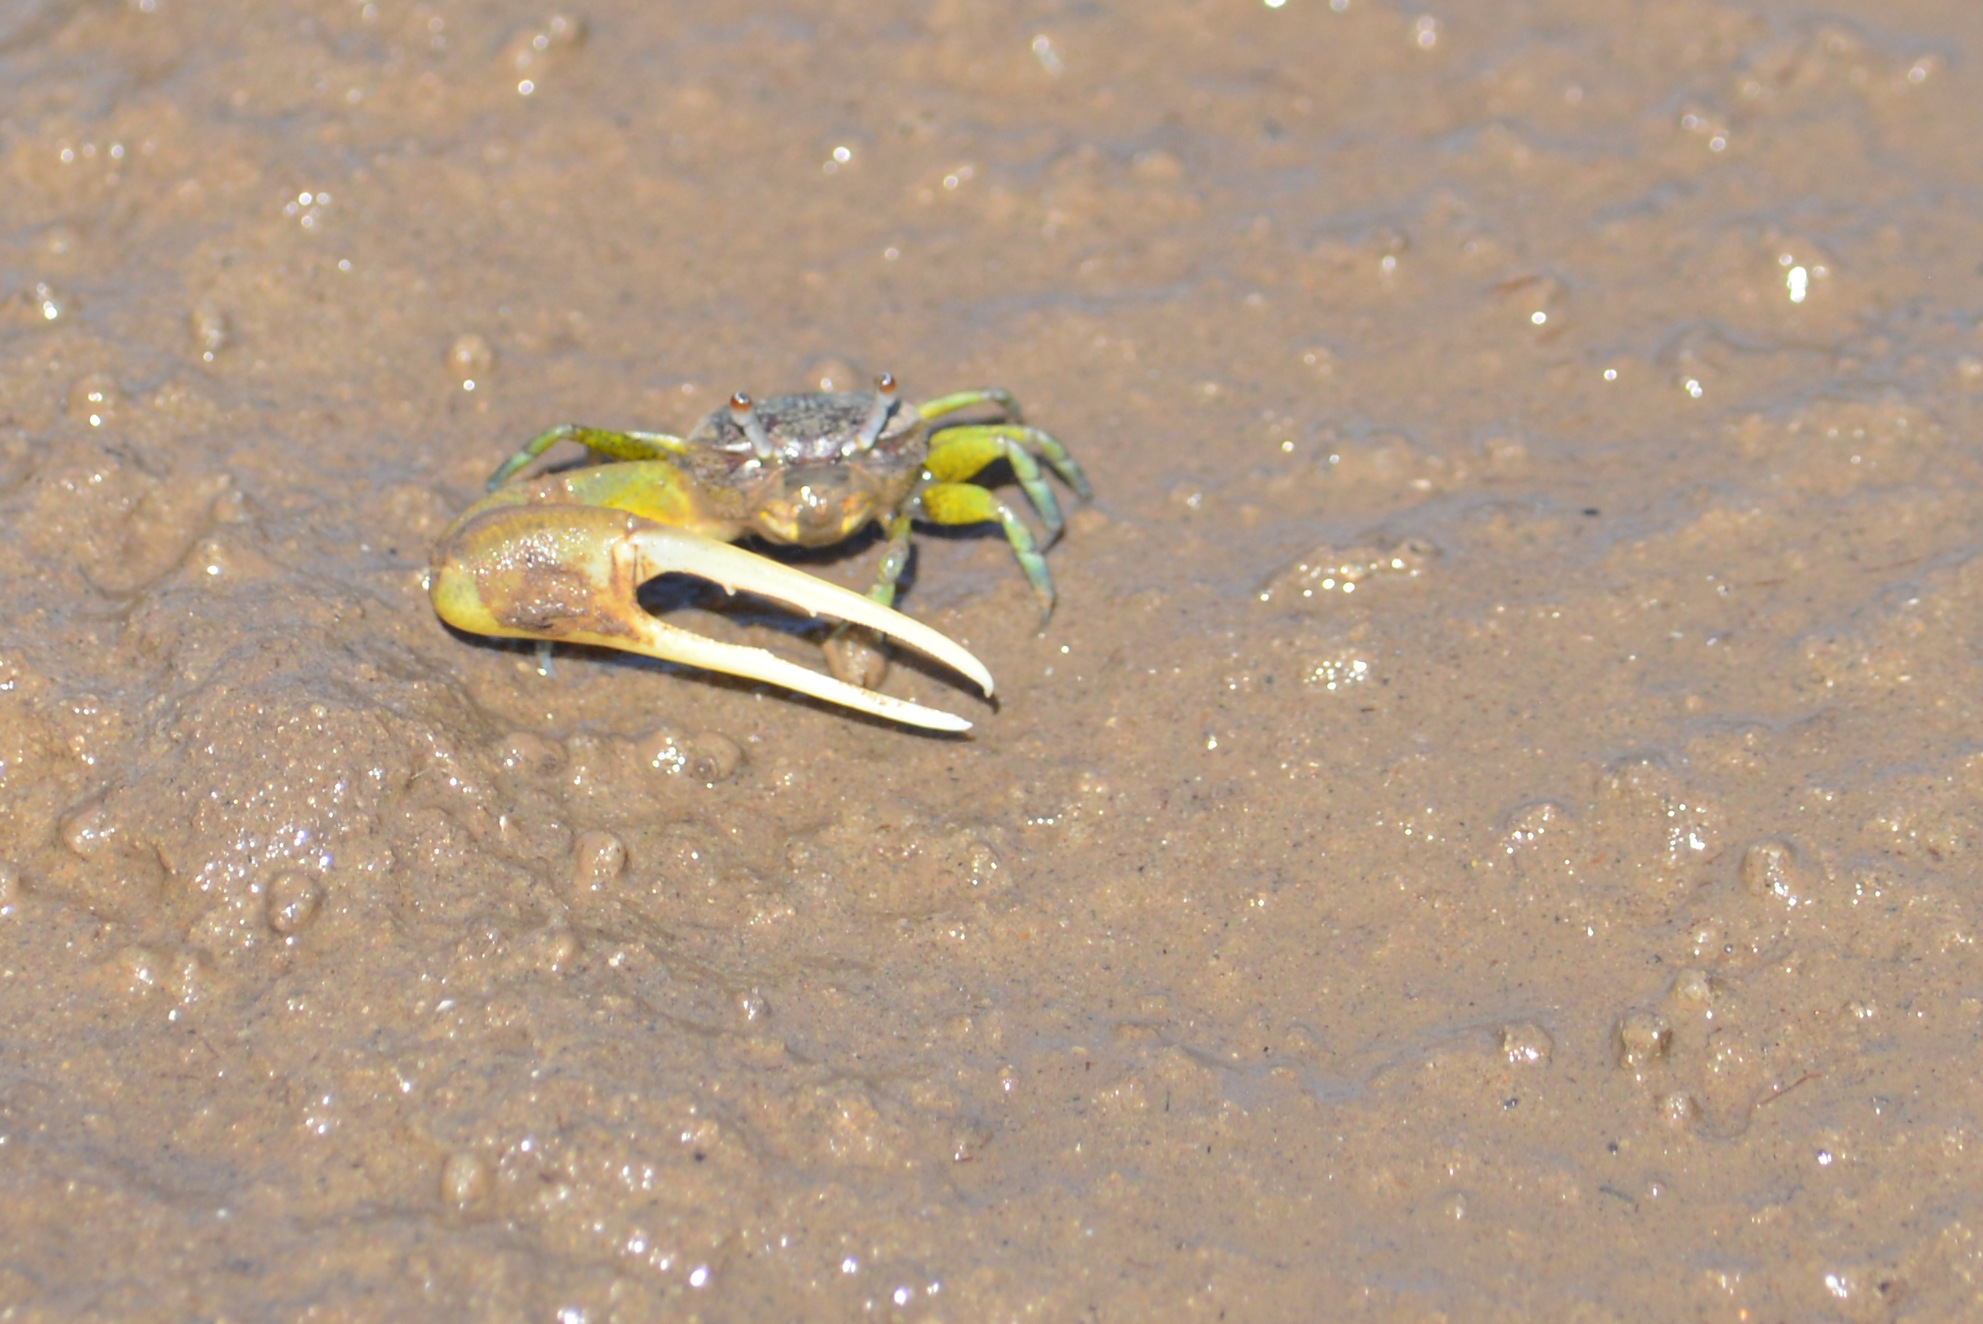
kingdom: Animalia
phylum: Arthropoda
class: Malacostraca
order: Decapoda
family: Ocypodidae
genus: Leptuca
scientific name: Leptuca leptodactyla
